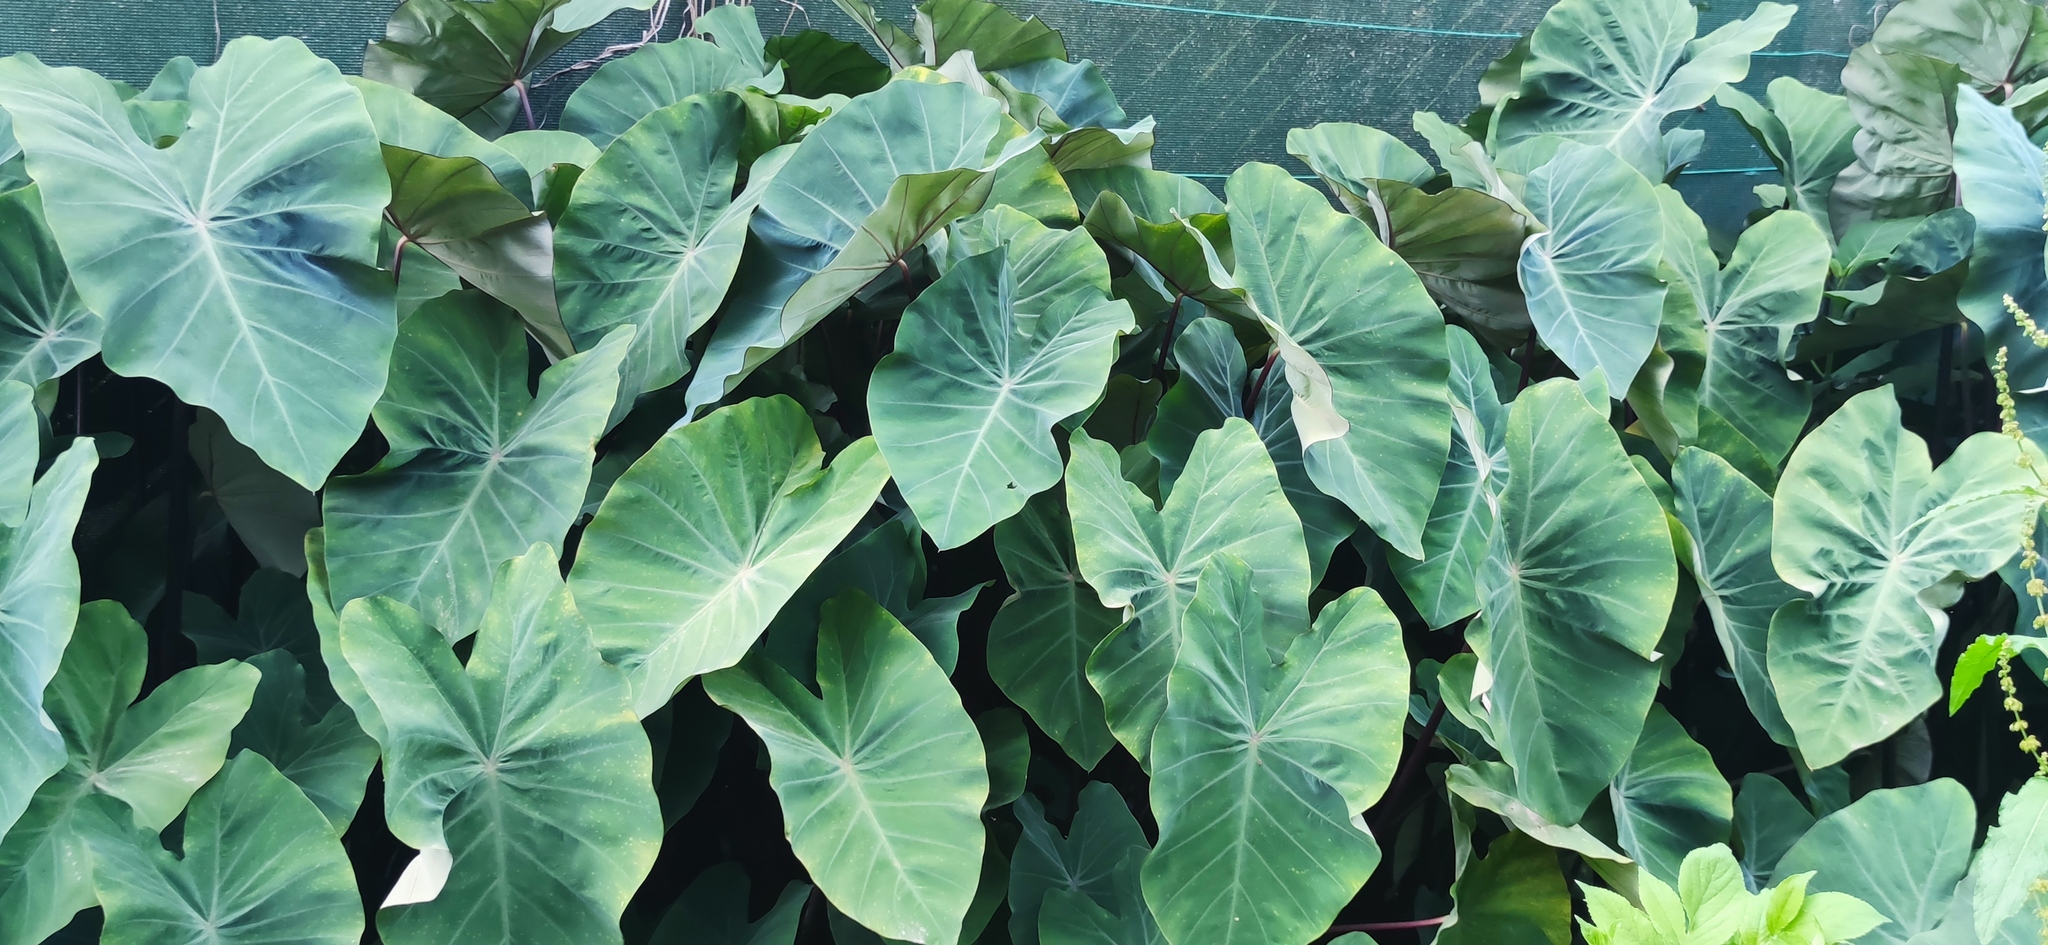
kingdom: Plantae
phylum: Tracheophyta
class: Liliopsida
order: Alismatales
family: Araceae
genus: Colocasia
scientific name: Colocasia esculenta
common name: Taro
